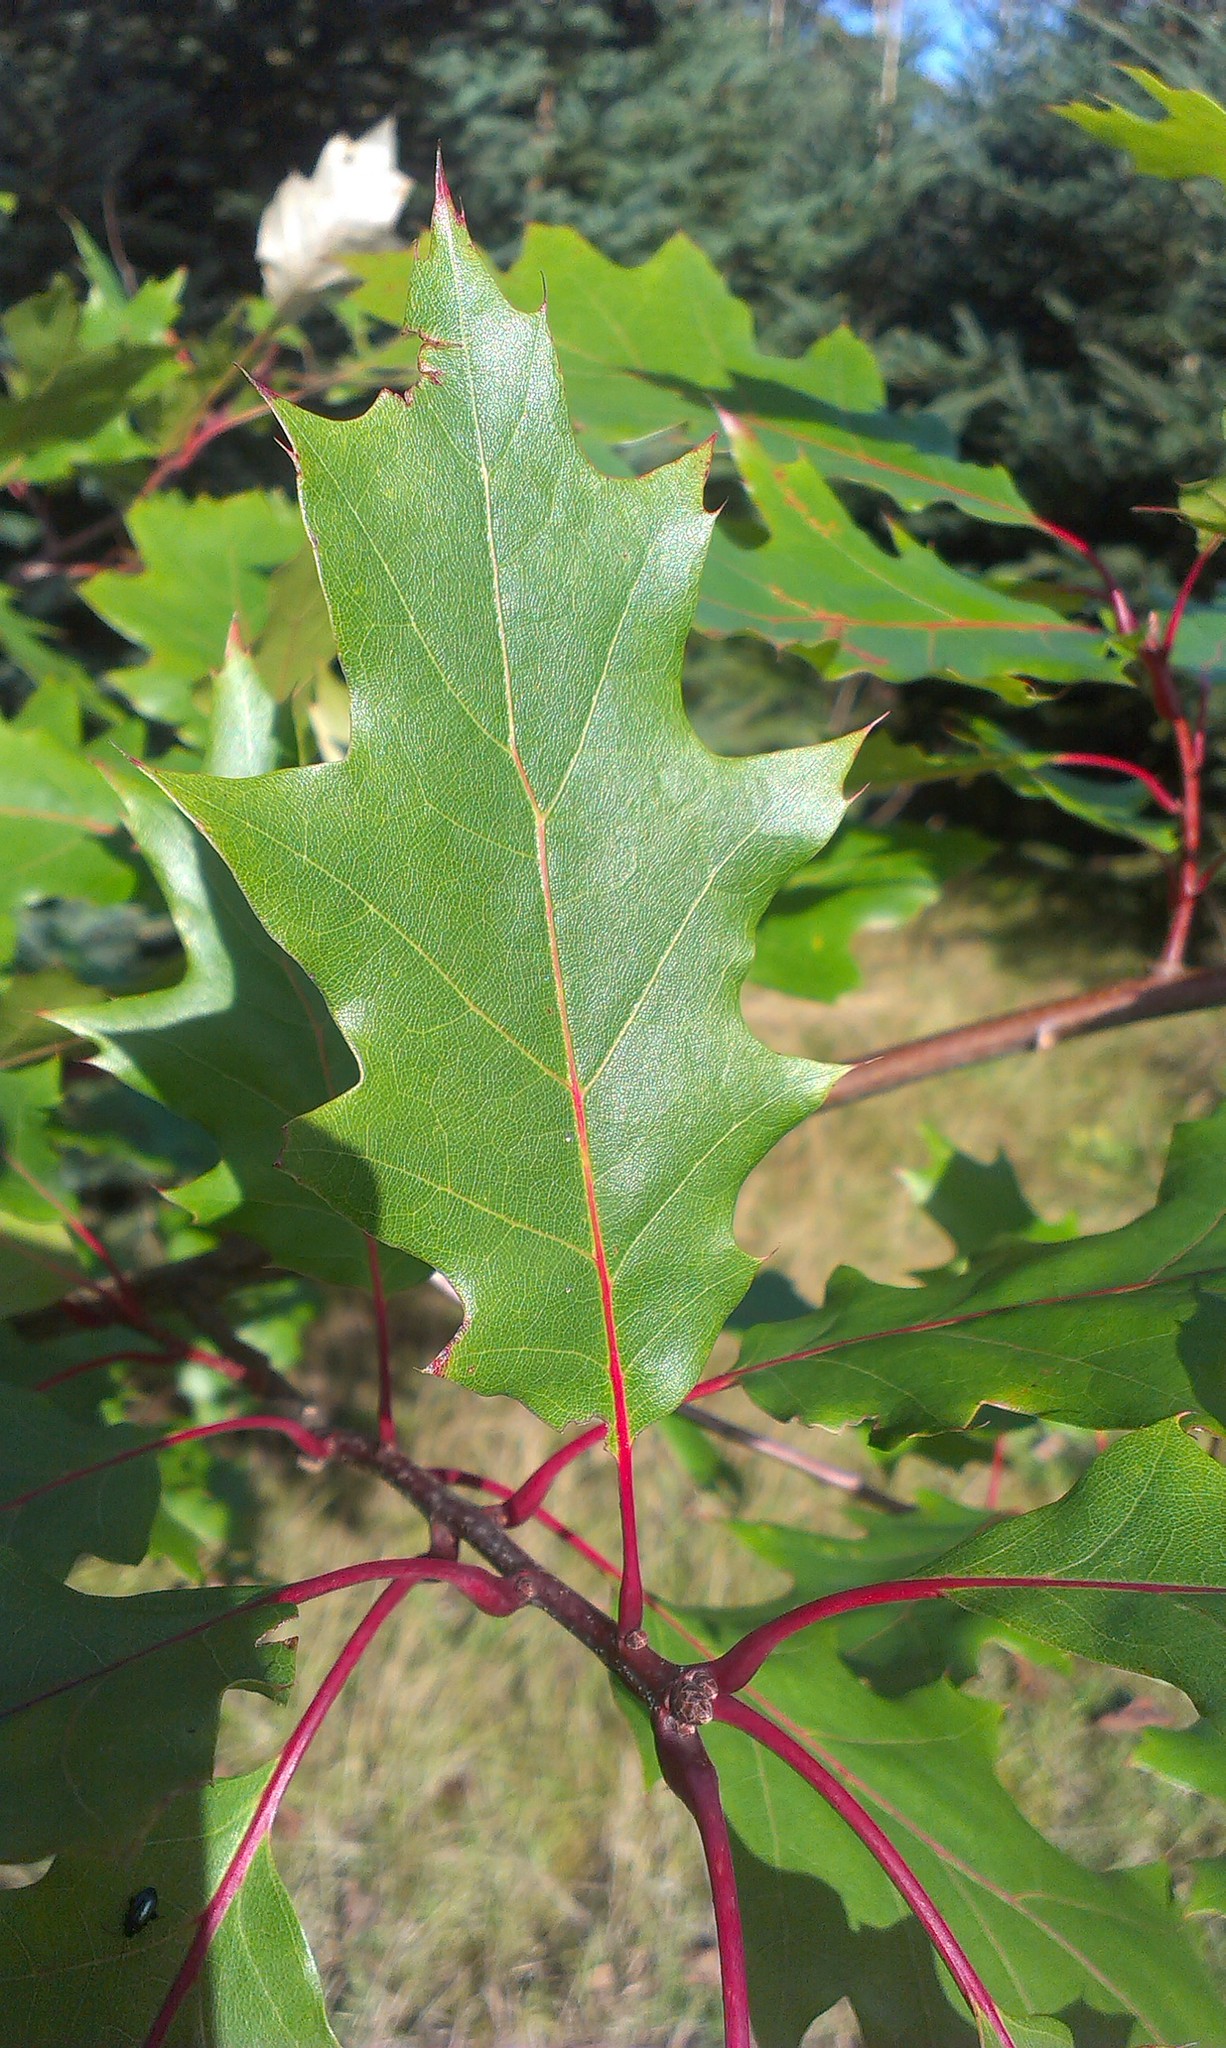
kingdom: Plantae
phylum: Tracheophyta
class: Magnoliopsida
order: Fagales
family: Fagaceae
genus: Quercus
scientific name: Quercus rubra
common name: Red oak
